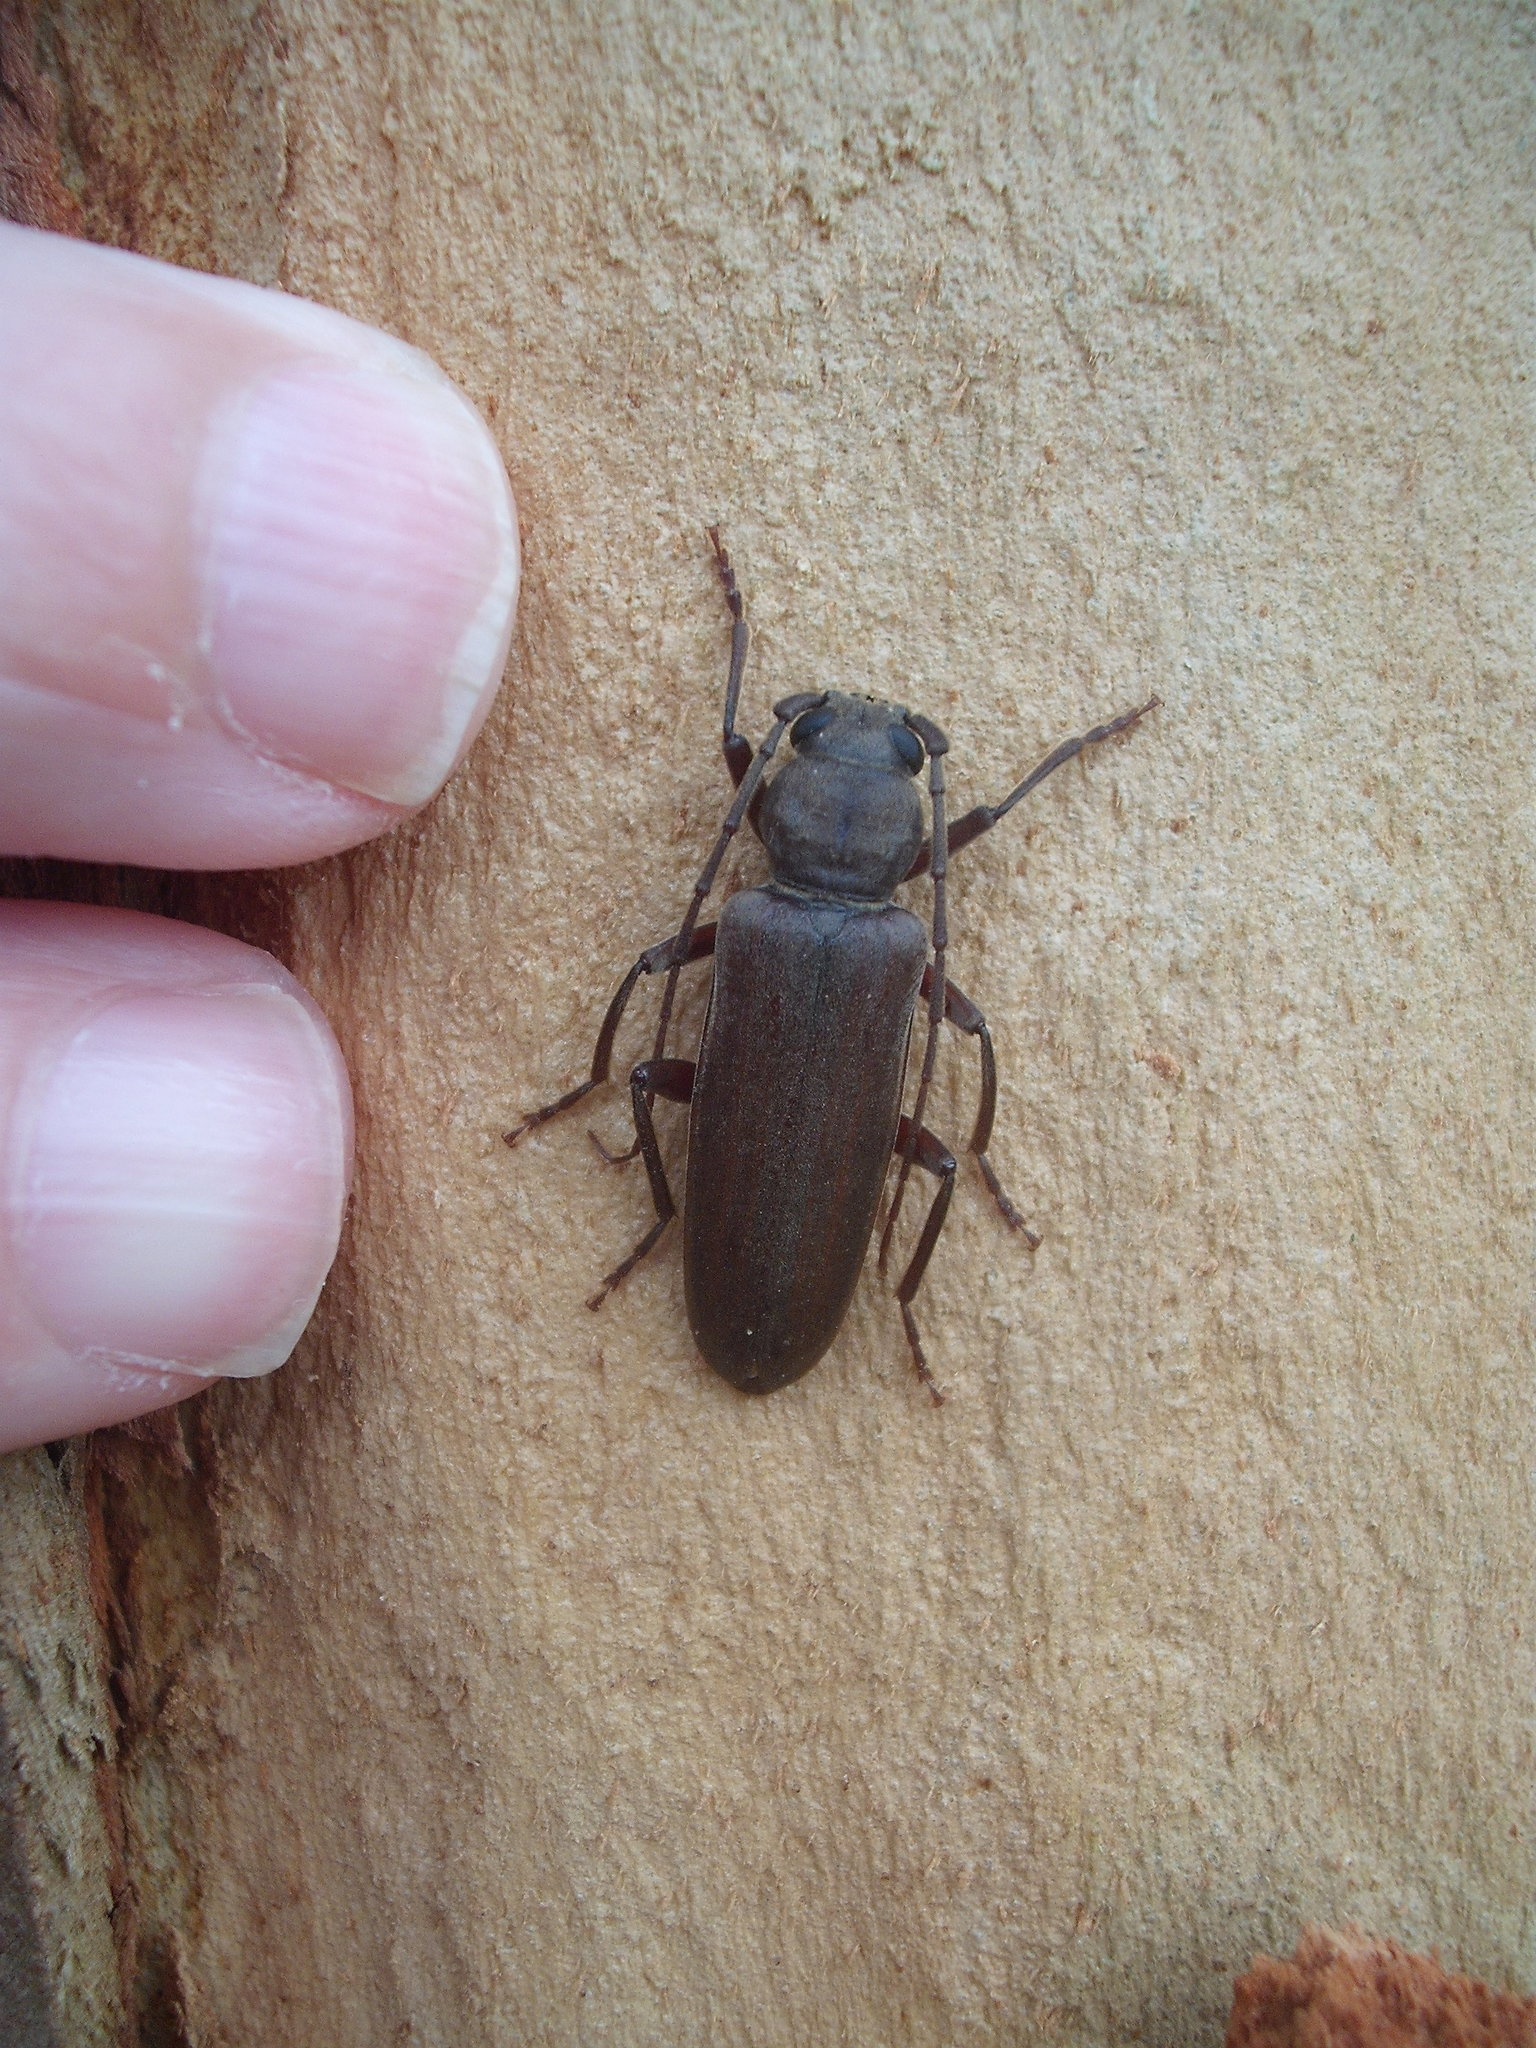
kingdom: Animalia
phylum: Arthropoda
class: Insecta
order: Coleoptera
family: Cerambycidae
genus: Arhopalus
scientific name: Arhopalus ferus
